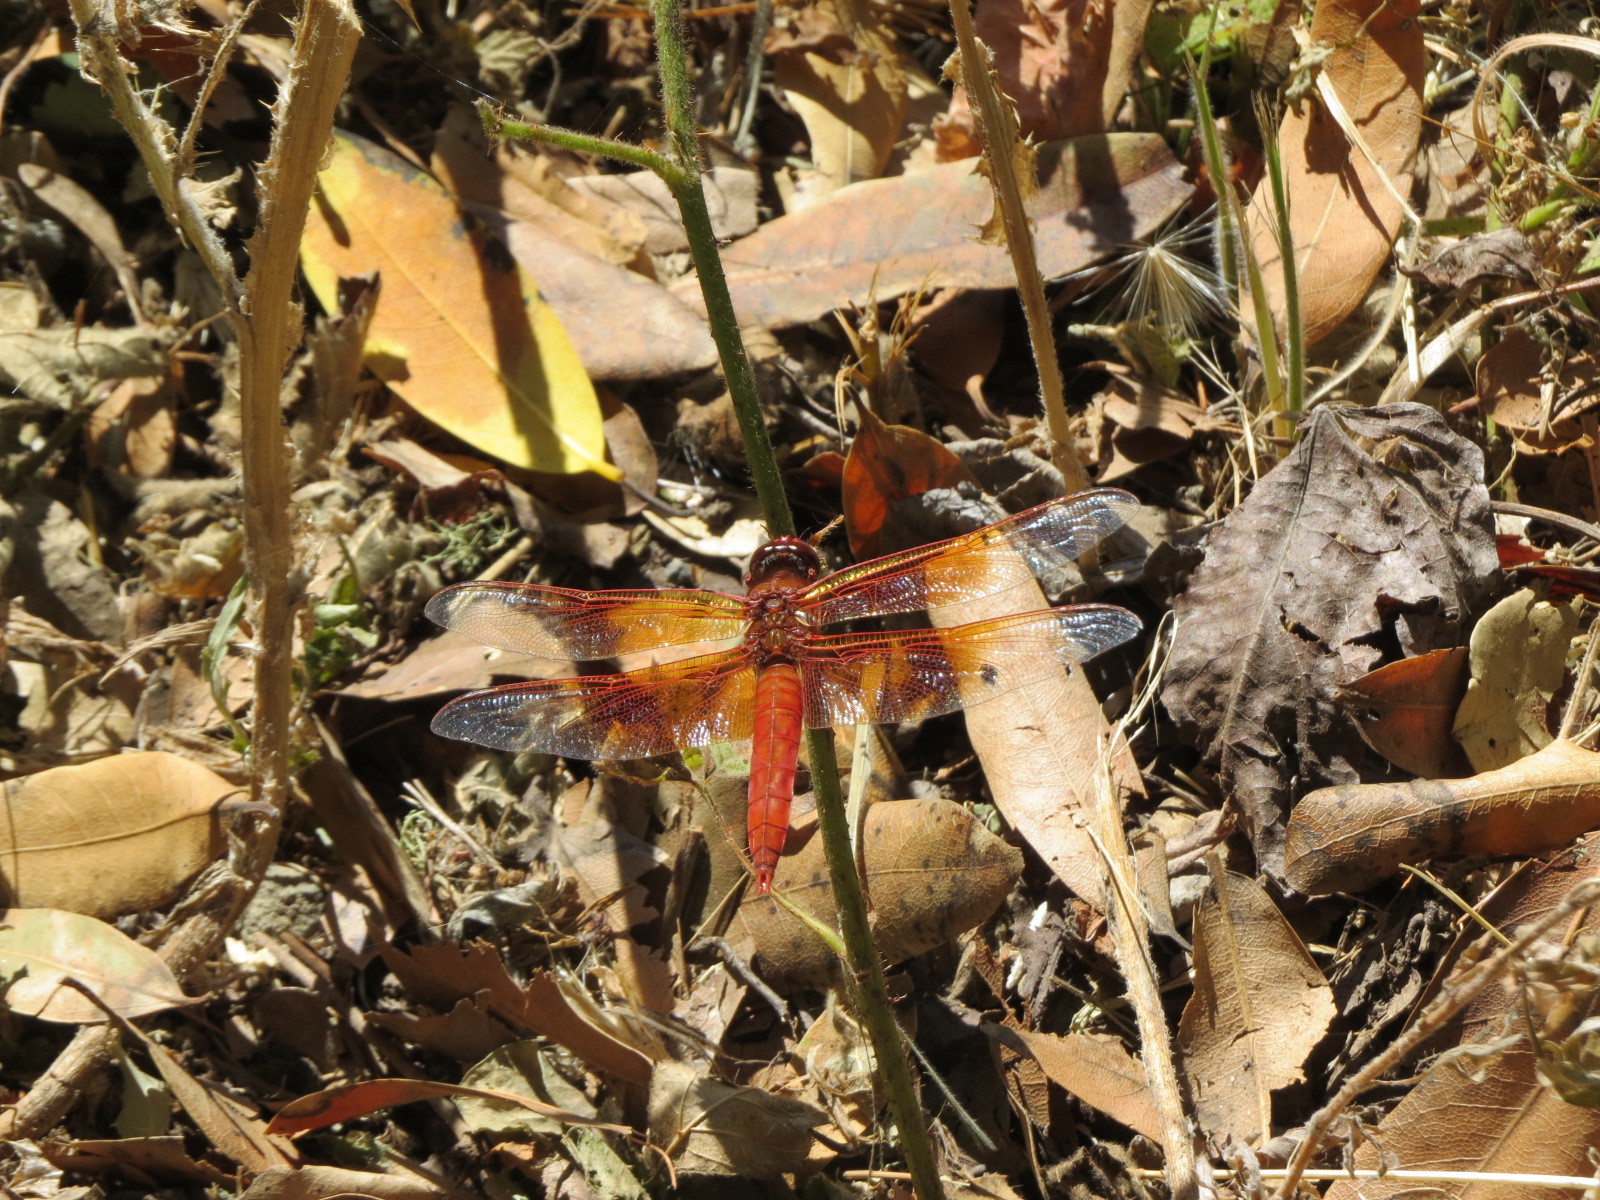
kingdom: Animalia
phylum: Arthropoda
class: Insecta
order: Odonata
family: Libellulidae
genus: Libellula
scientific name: Libellula saturata
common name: Flame skimmer
